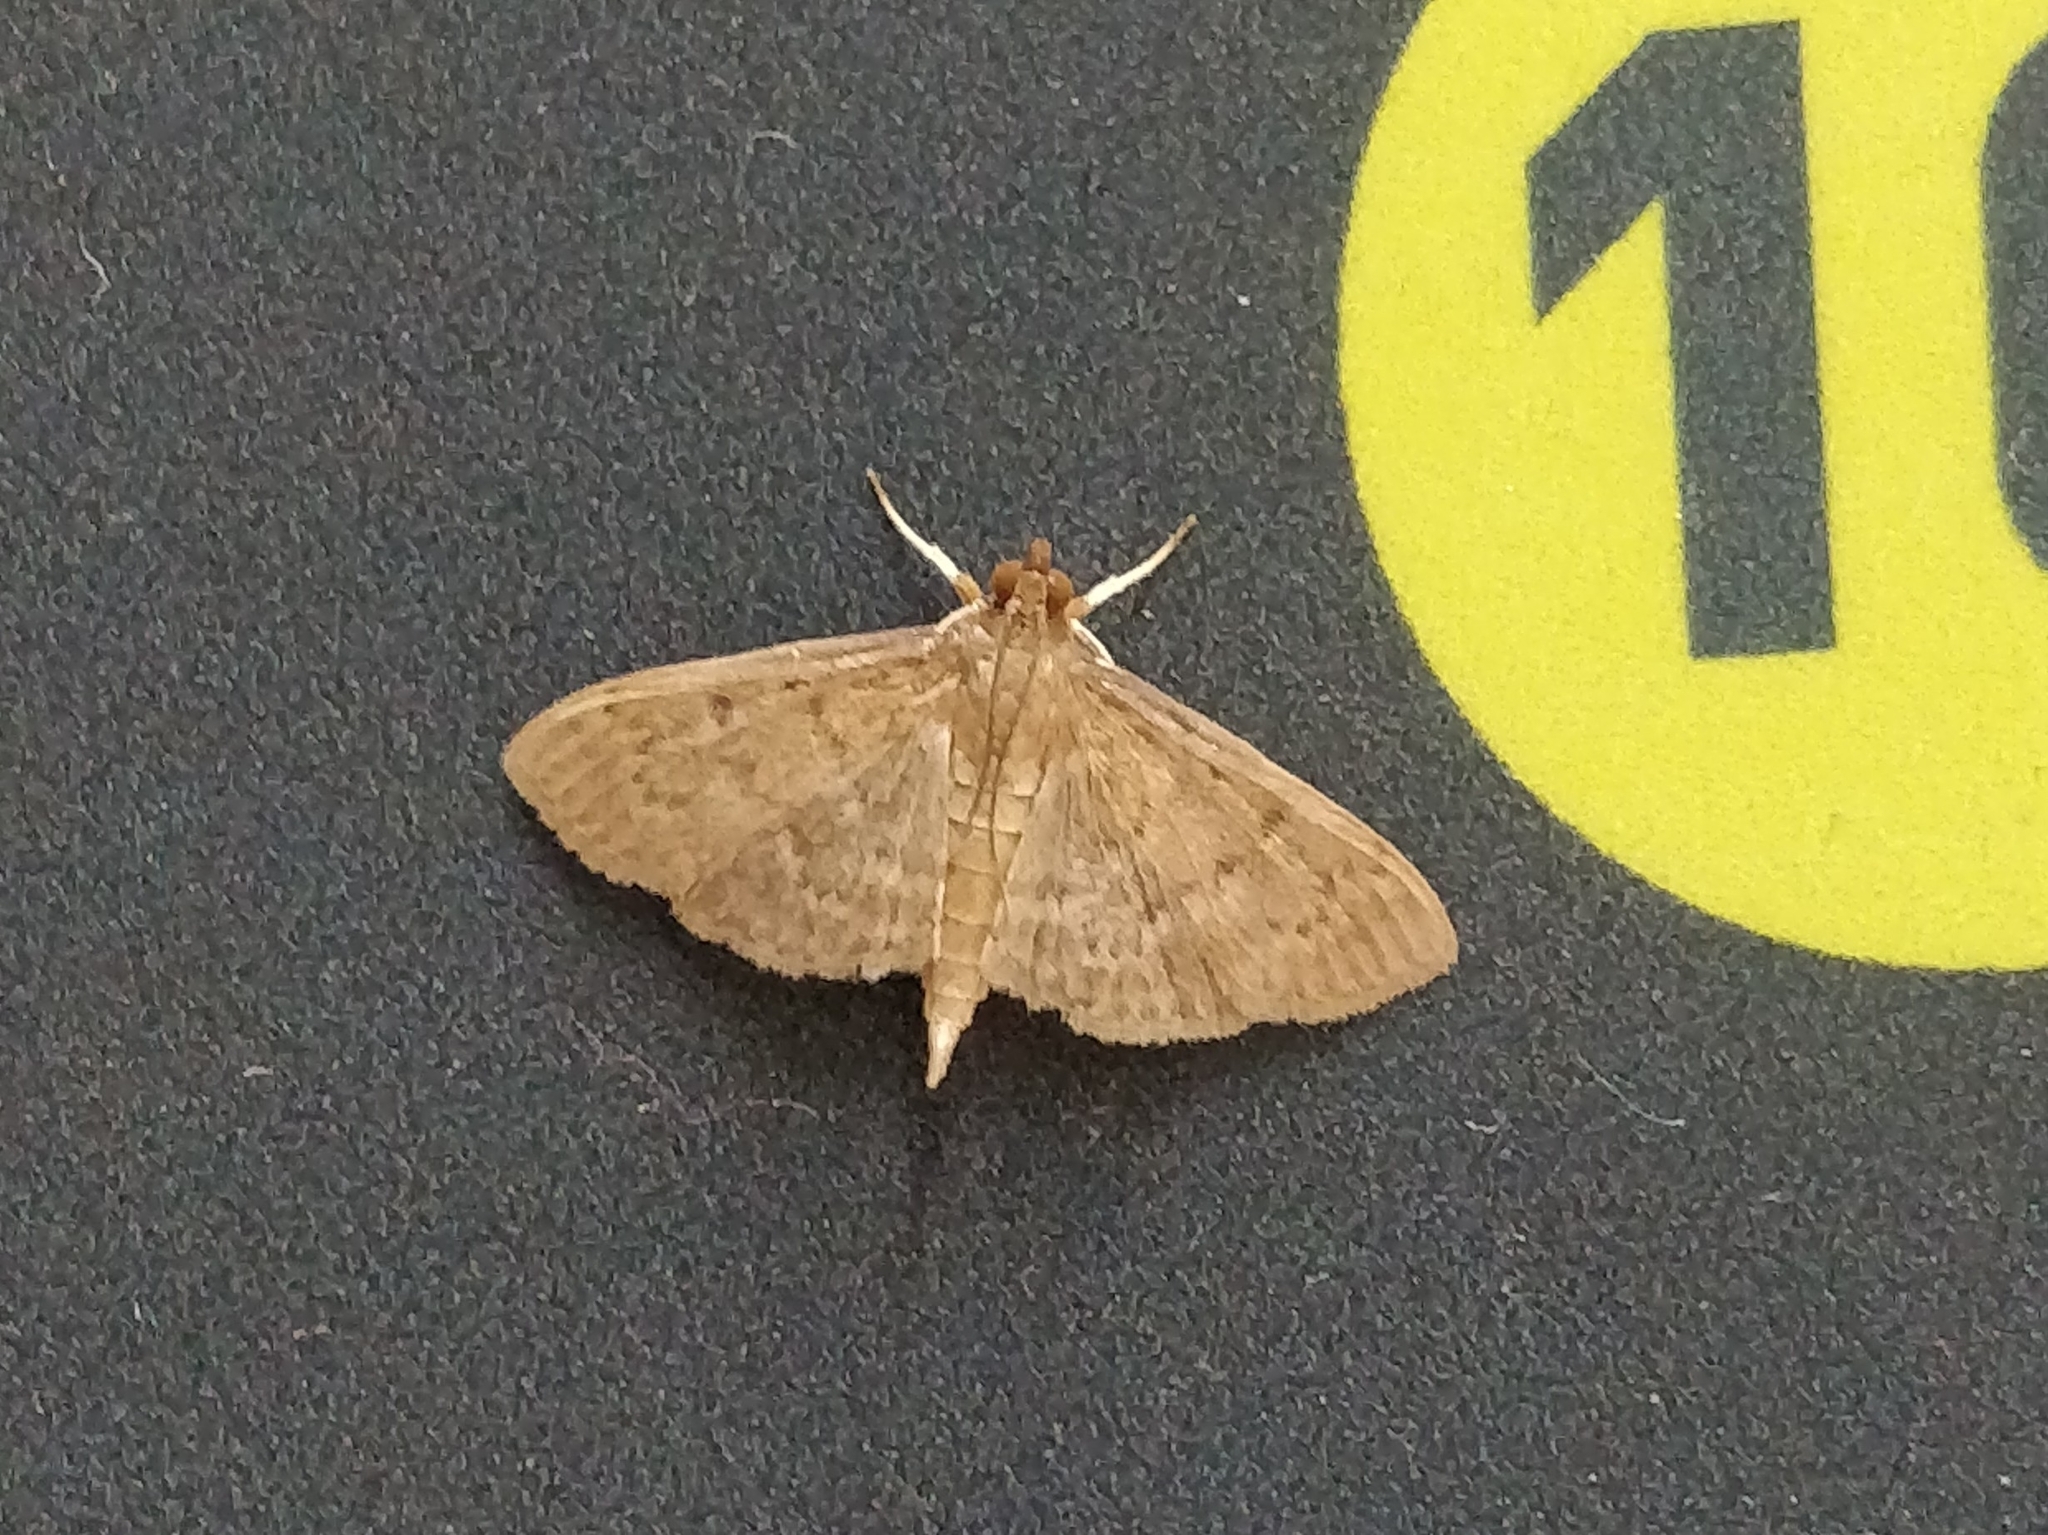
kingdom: Animalia
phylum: Arthropoda
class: Insecta
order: Lepidoptera
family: Crambidae
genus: Herpetogramma
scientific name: Herpetogramma licarsisalis
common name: Grass webworm
